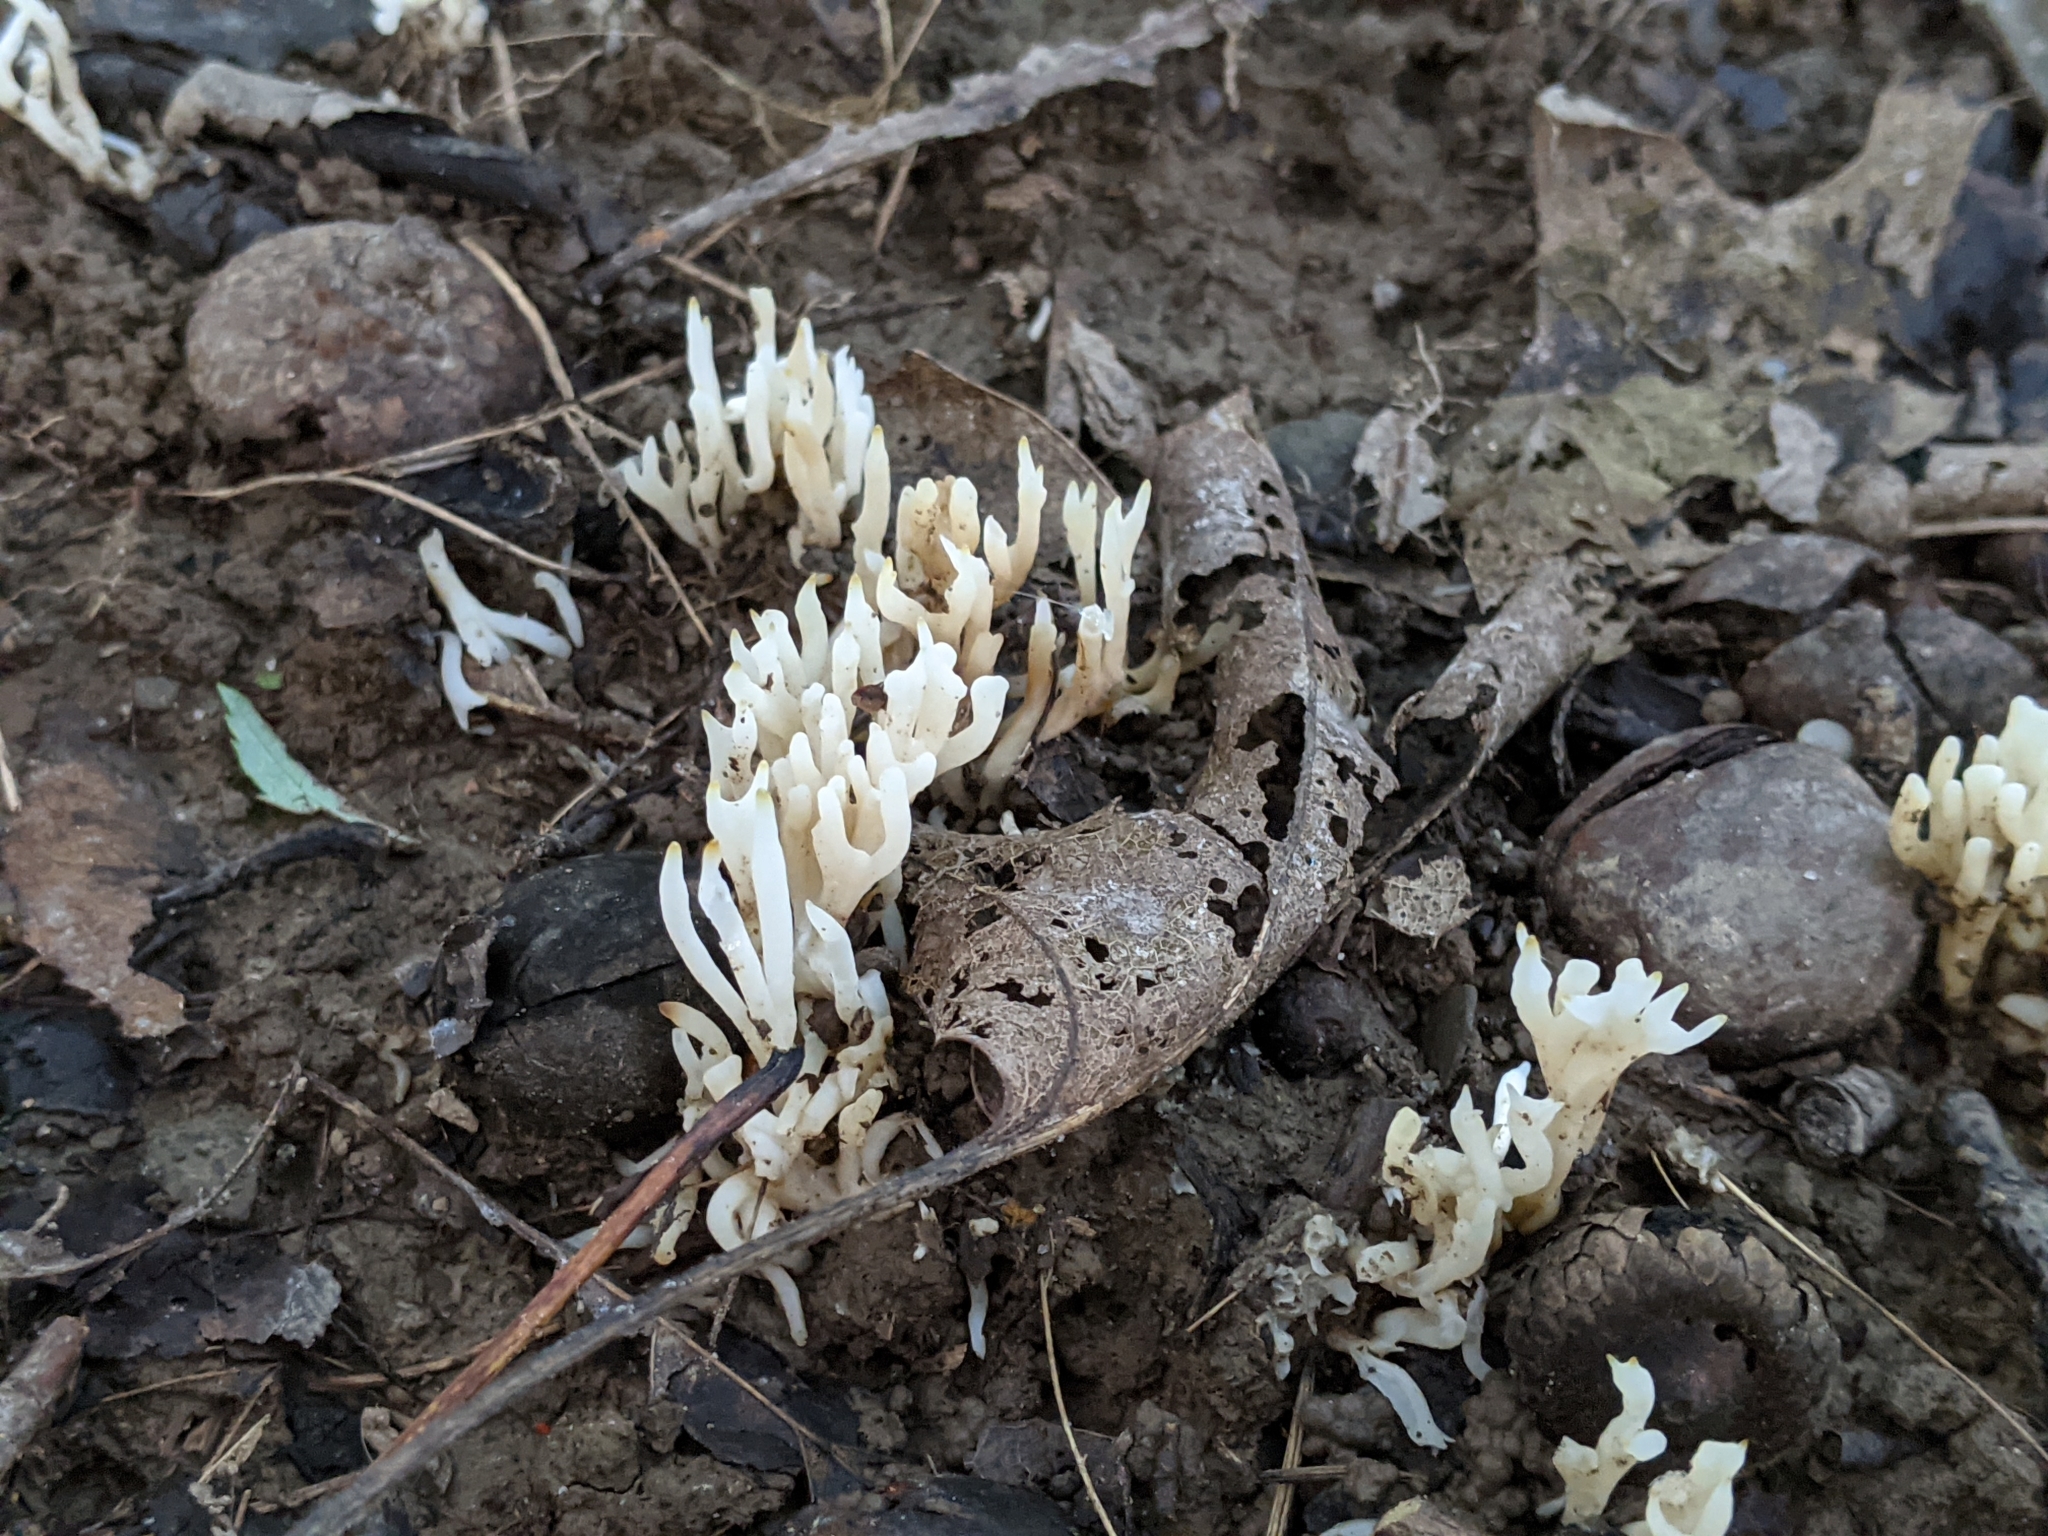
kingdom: Fungi
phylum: Basidiomycota
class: Agaricomycetes
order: Agaricales
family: Clavariaceae
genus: Ramariopsis
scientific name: Ramariopsis kunzei
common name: Ivory coral
